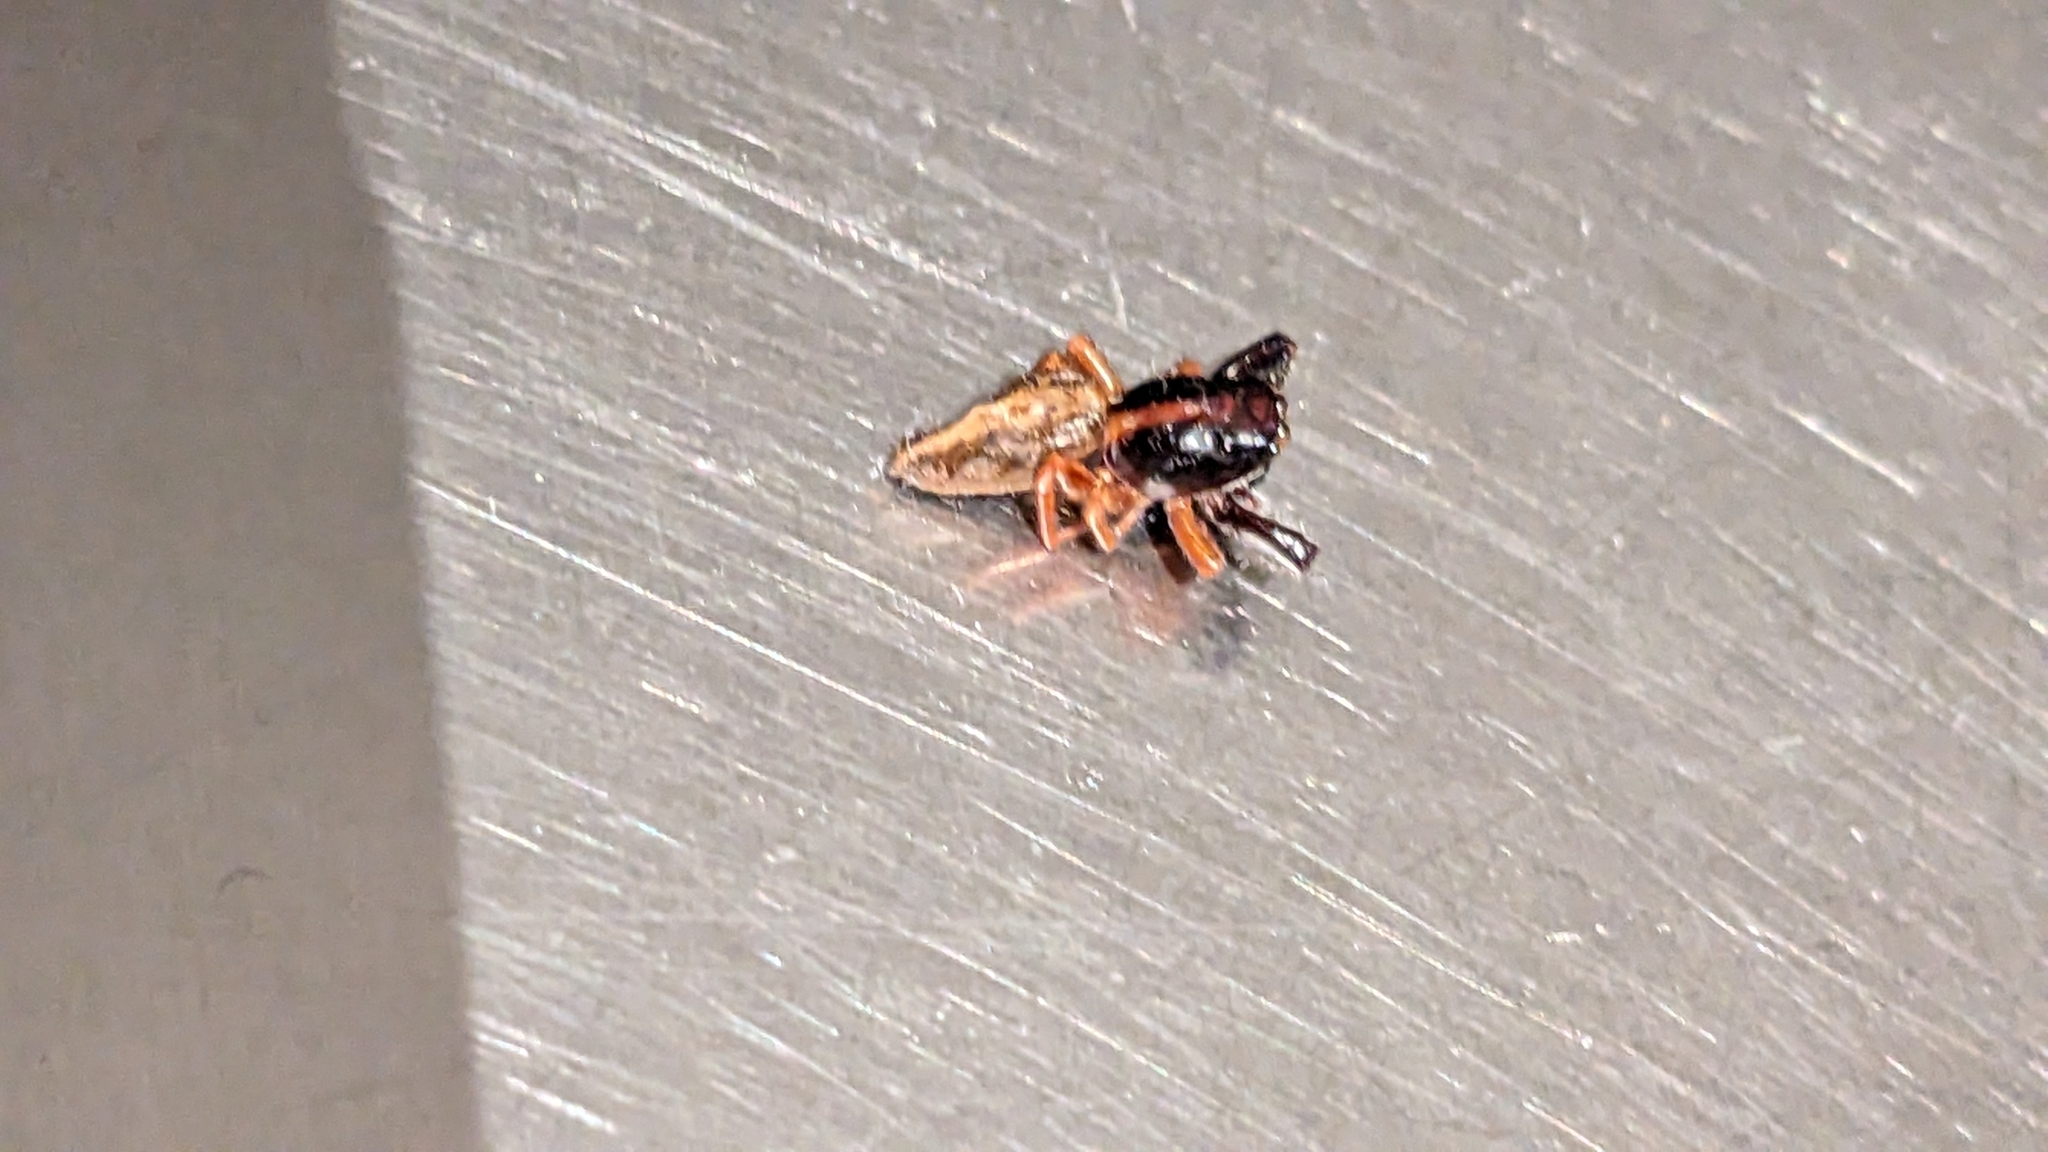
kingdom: Animalia
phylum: Arthropoda
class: Arachnida
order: Araneae
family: Salticidae
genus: Trite
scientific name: Trite planiceps
